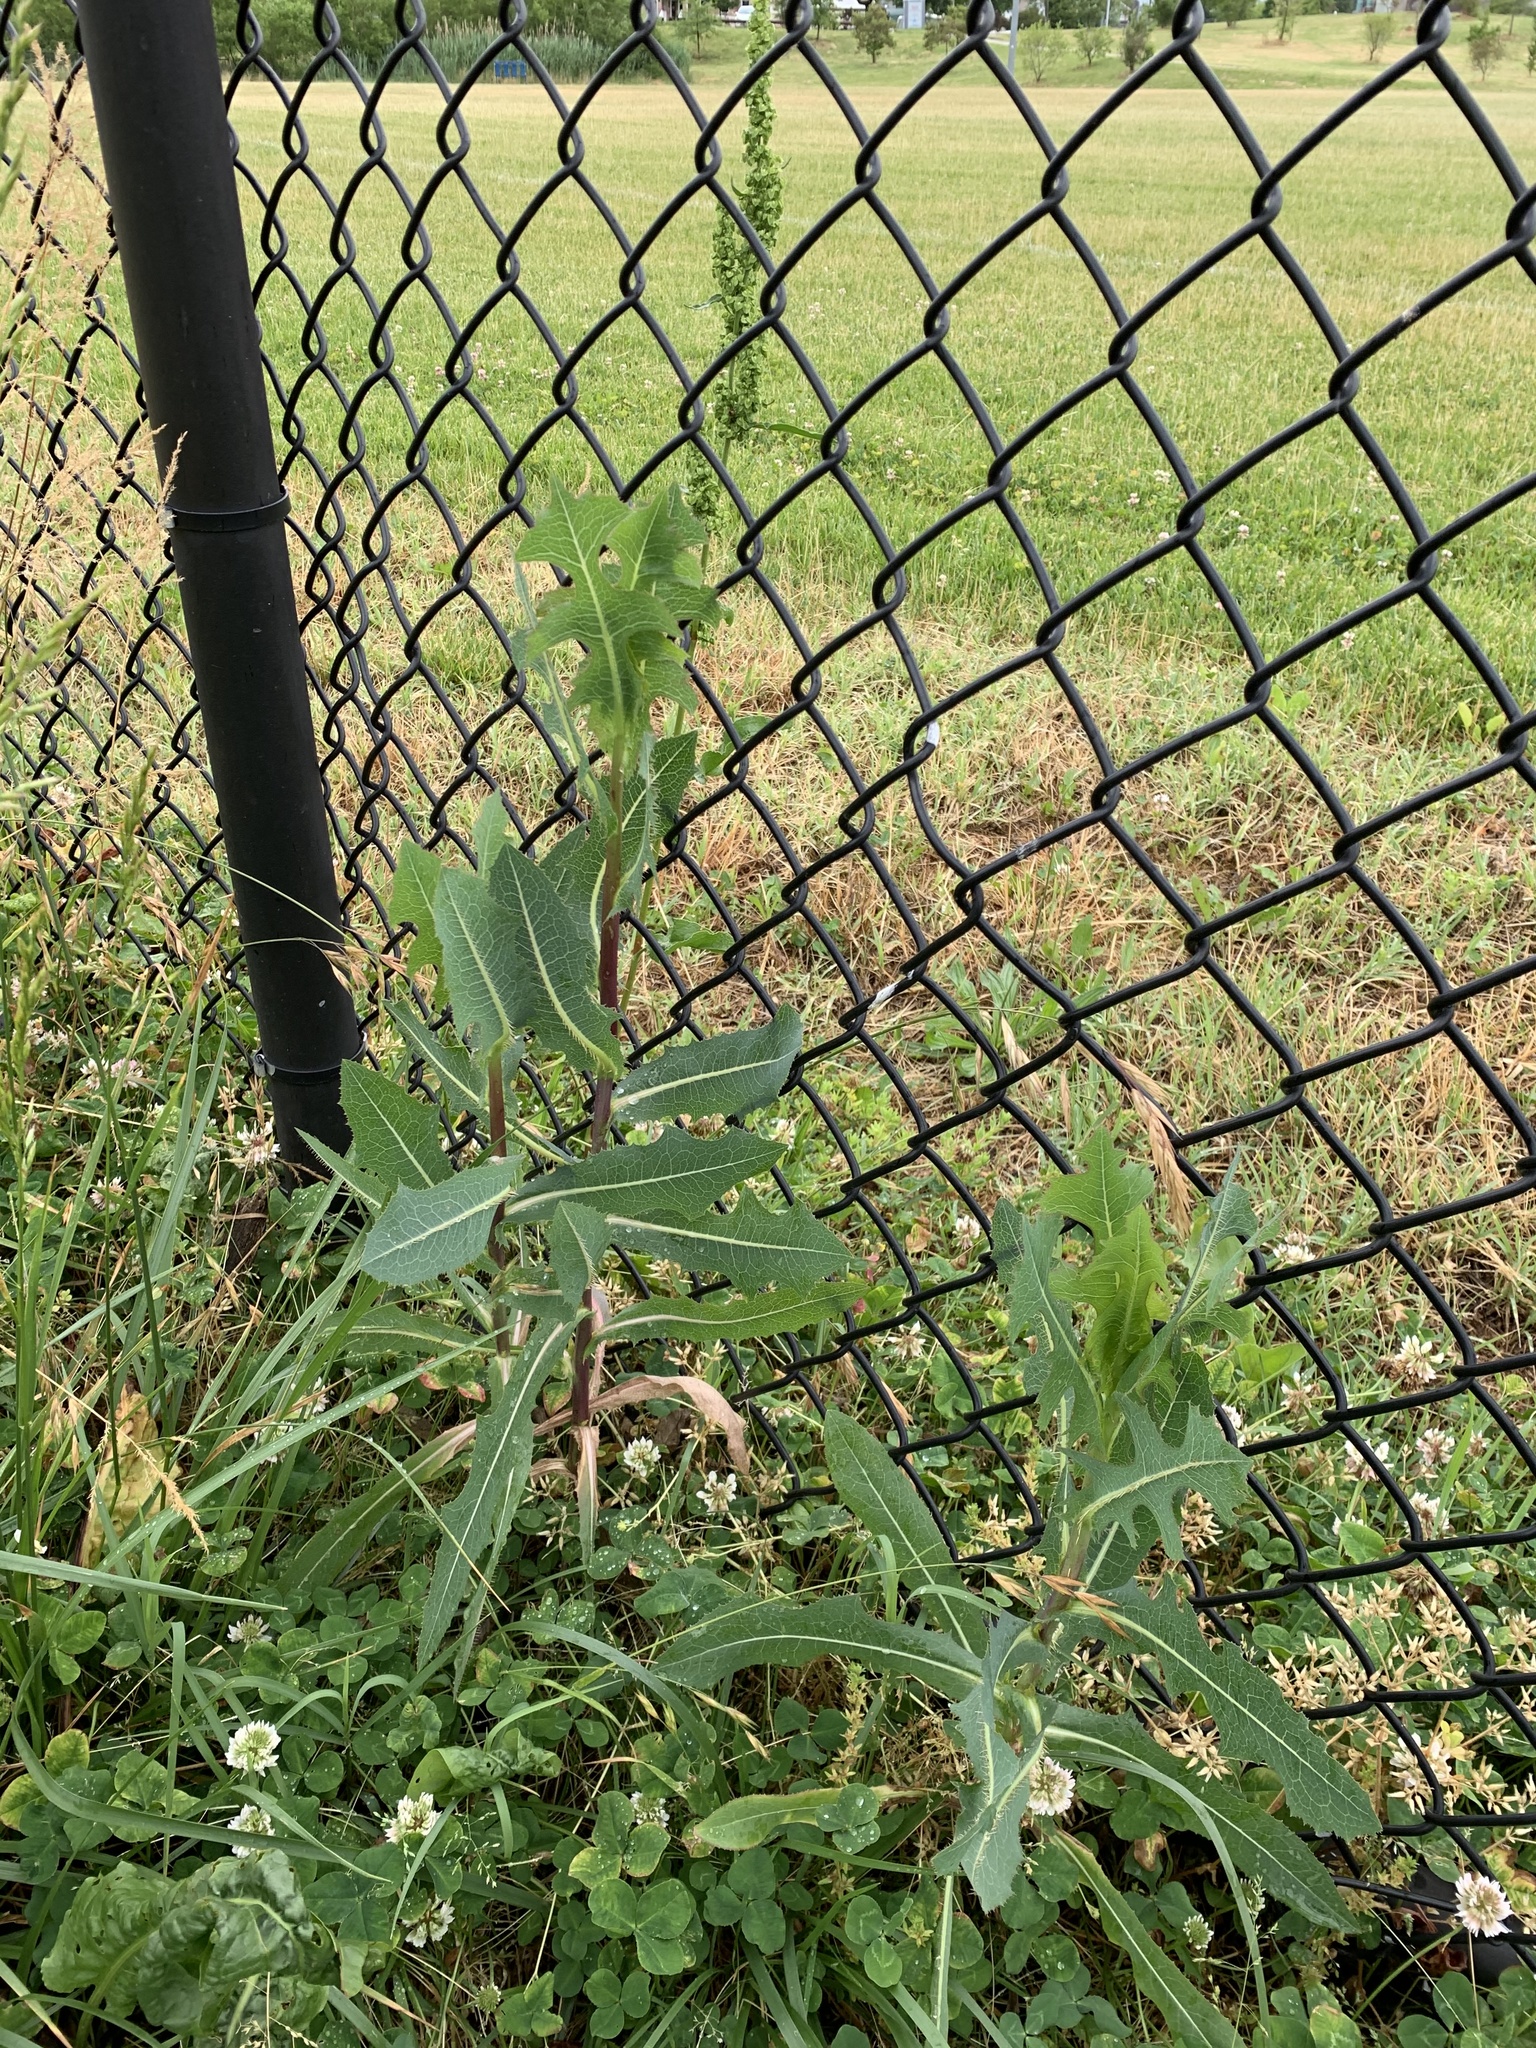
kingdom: Plantae
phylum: Tracheophyta
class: Magnoliopsida
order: Asterales
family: Asteraceae
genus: Lactuca
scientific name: Lactuca serriola
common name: Prickly lettuce
